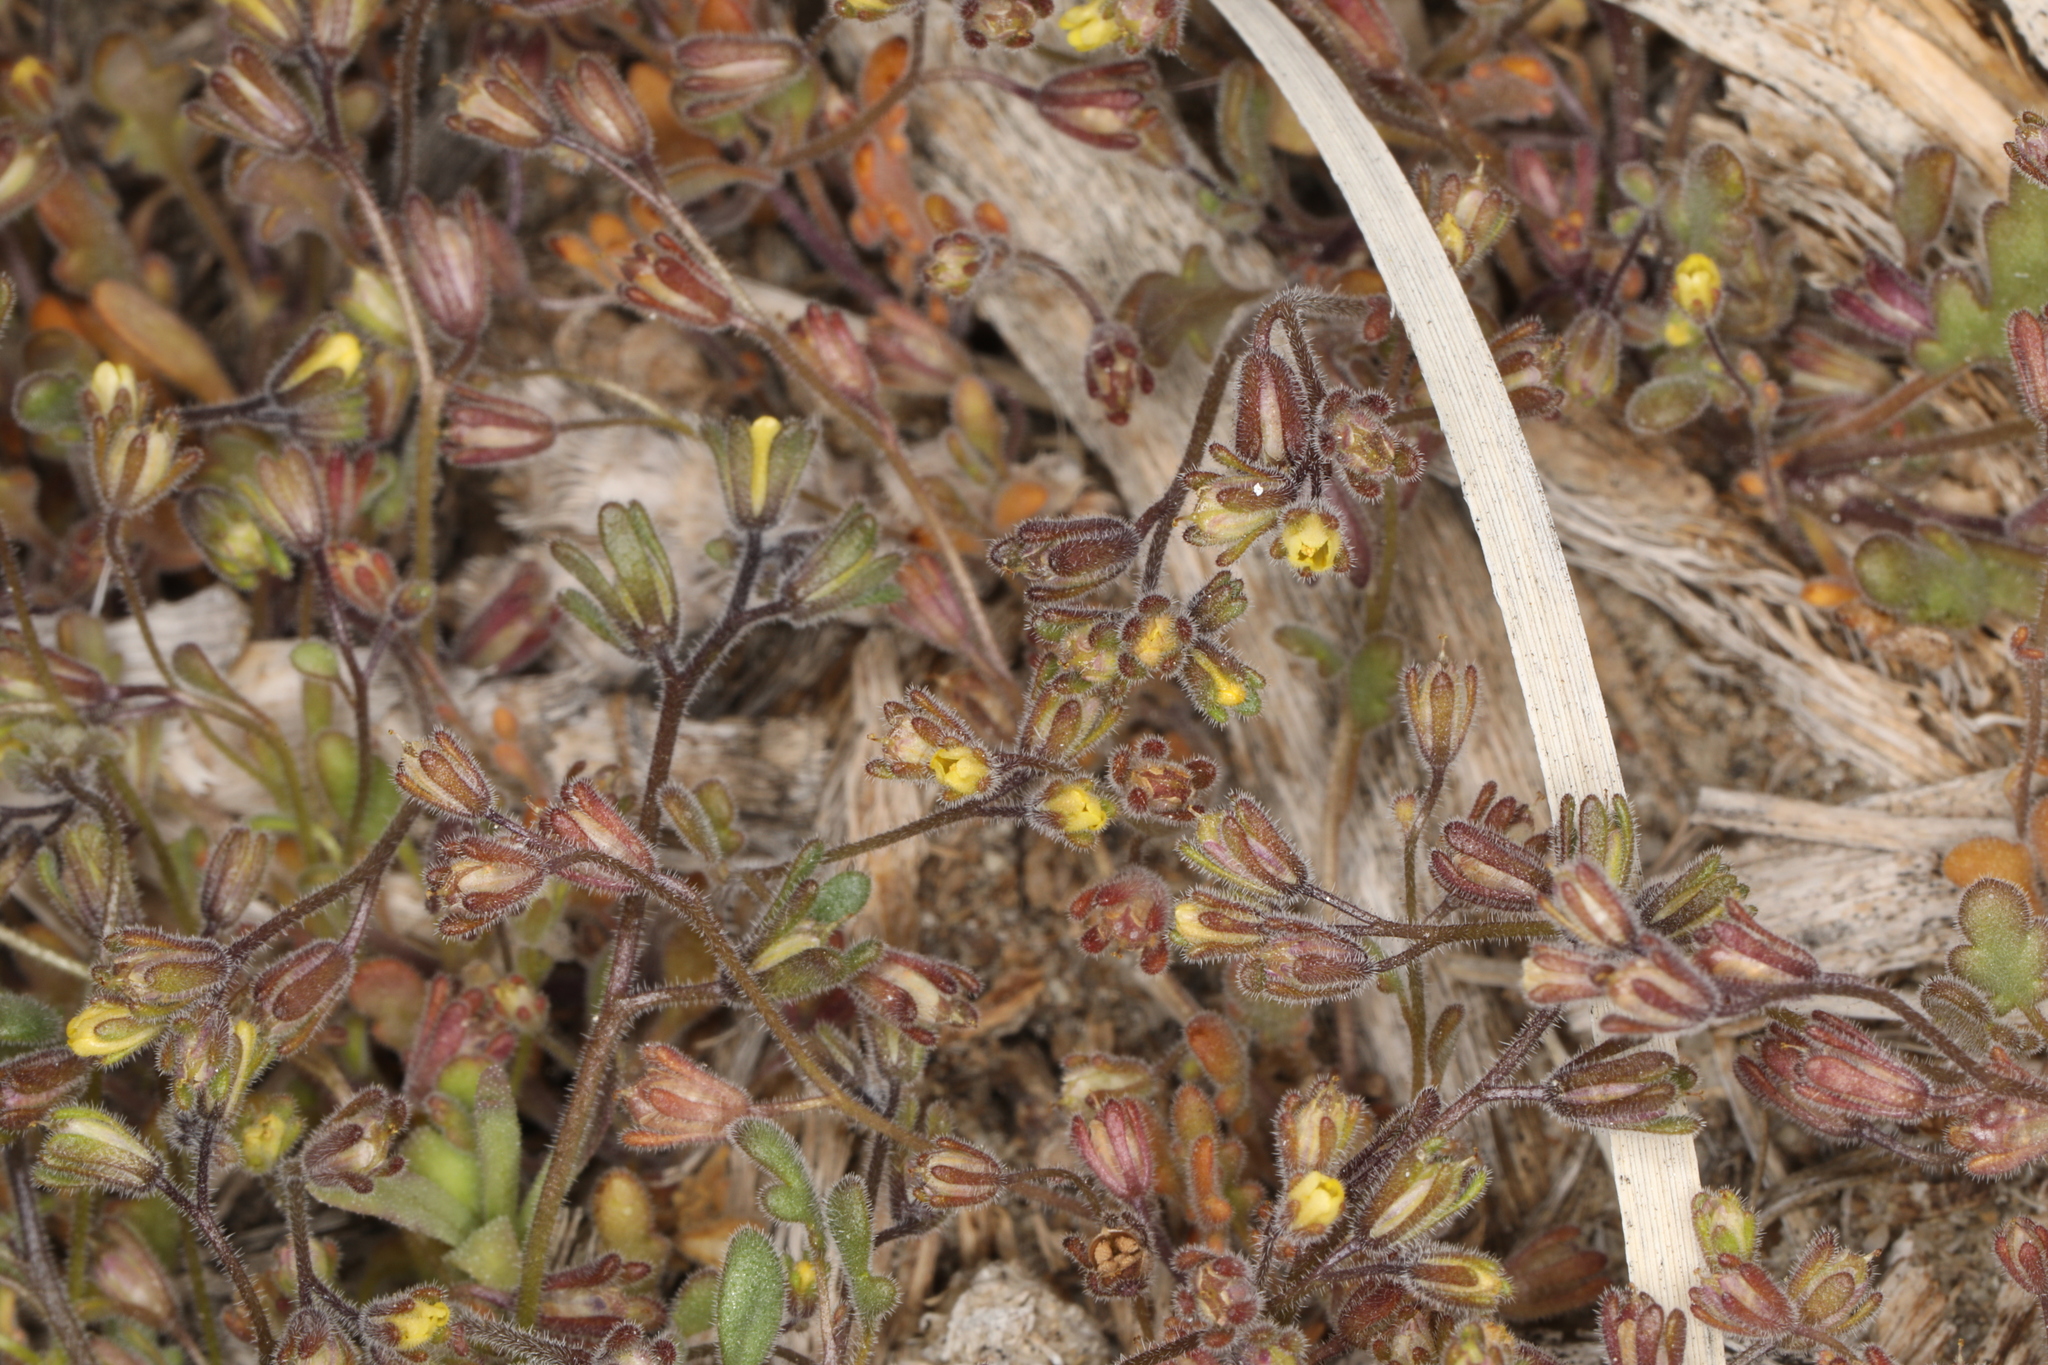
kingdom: Plantae
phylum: Tracheophyta
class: Magnoliopsida
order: Boraginales
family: Hydrophyllaceae
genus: Phacelia
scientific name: Phacelia inyoensis
